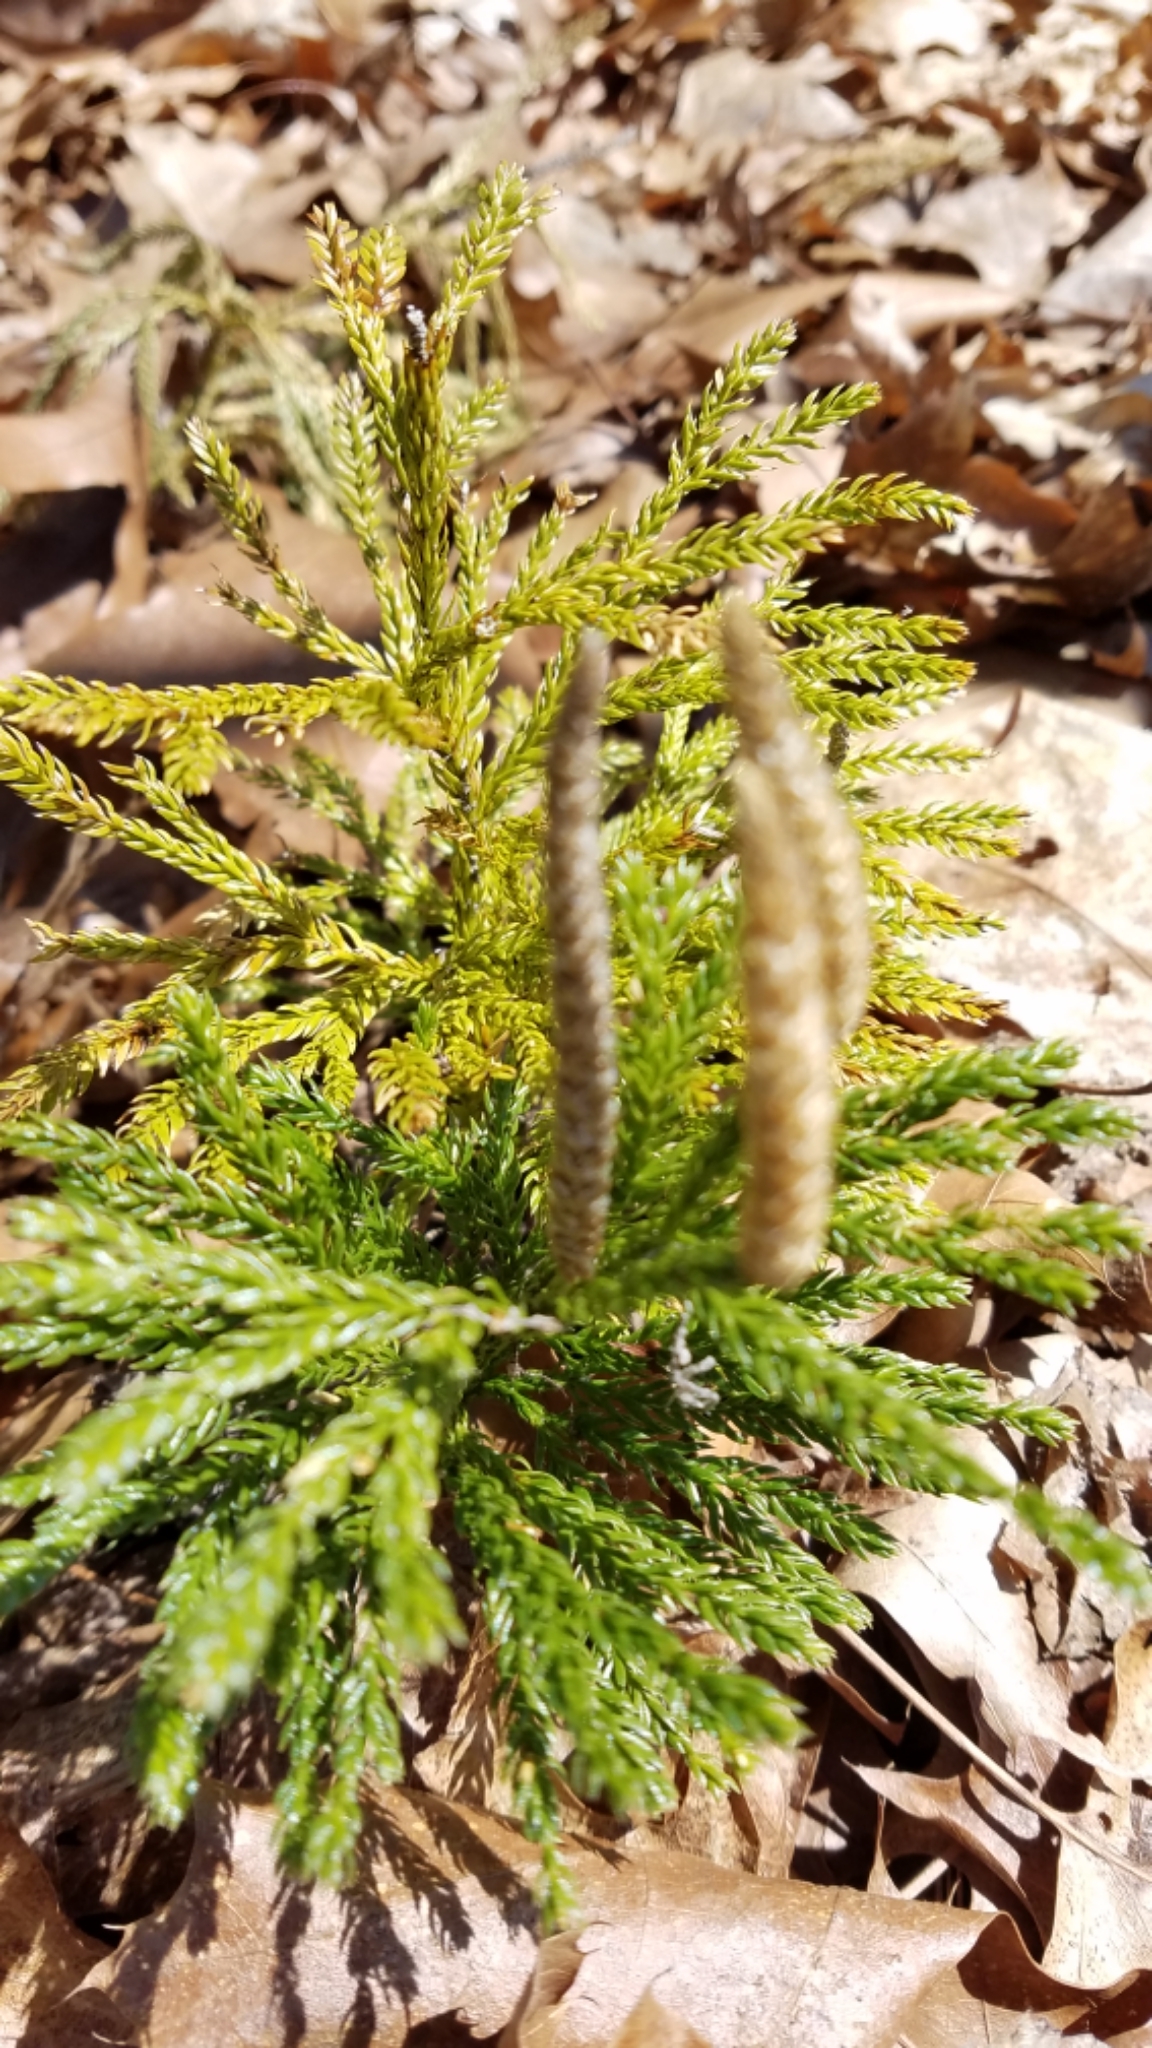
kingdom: Plantae
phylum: Tracheophyta
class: Lycopodiopsida
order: Lycopodiales
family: Lycopodiaceae
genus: Dendrolycopodium
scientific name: Dendrolycopodium obscurum
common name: Common ground-pine
